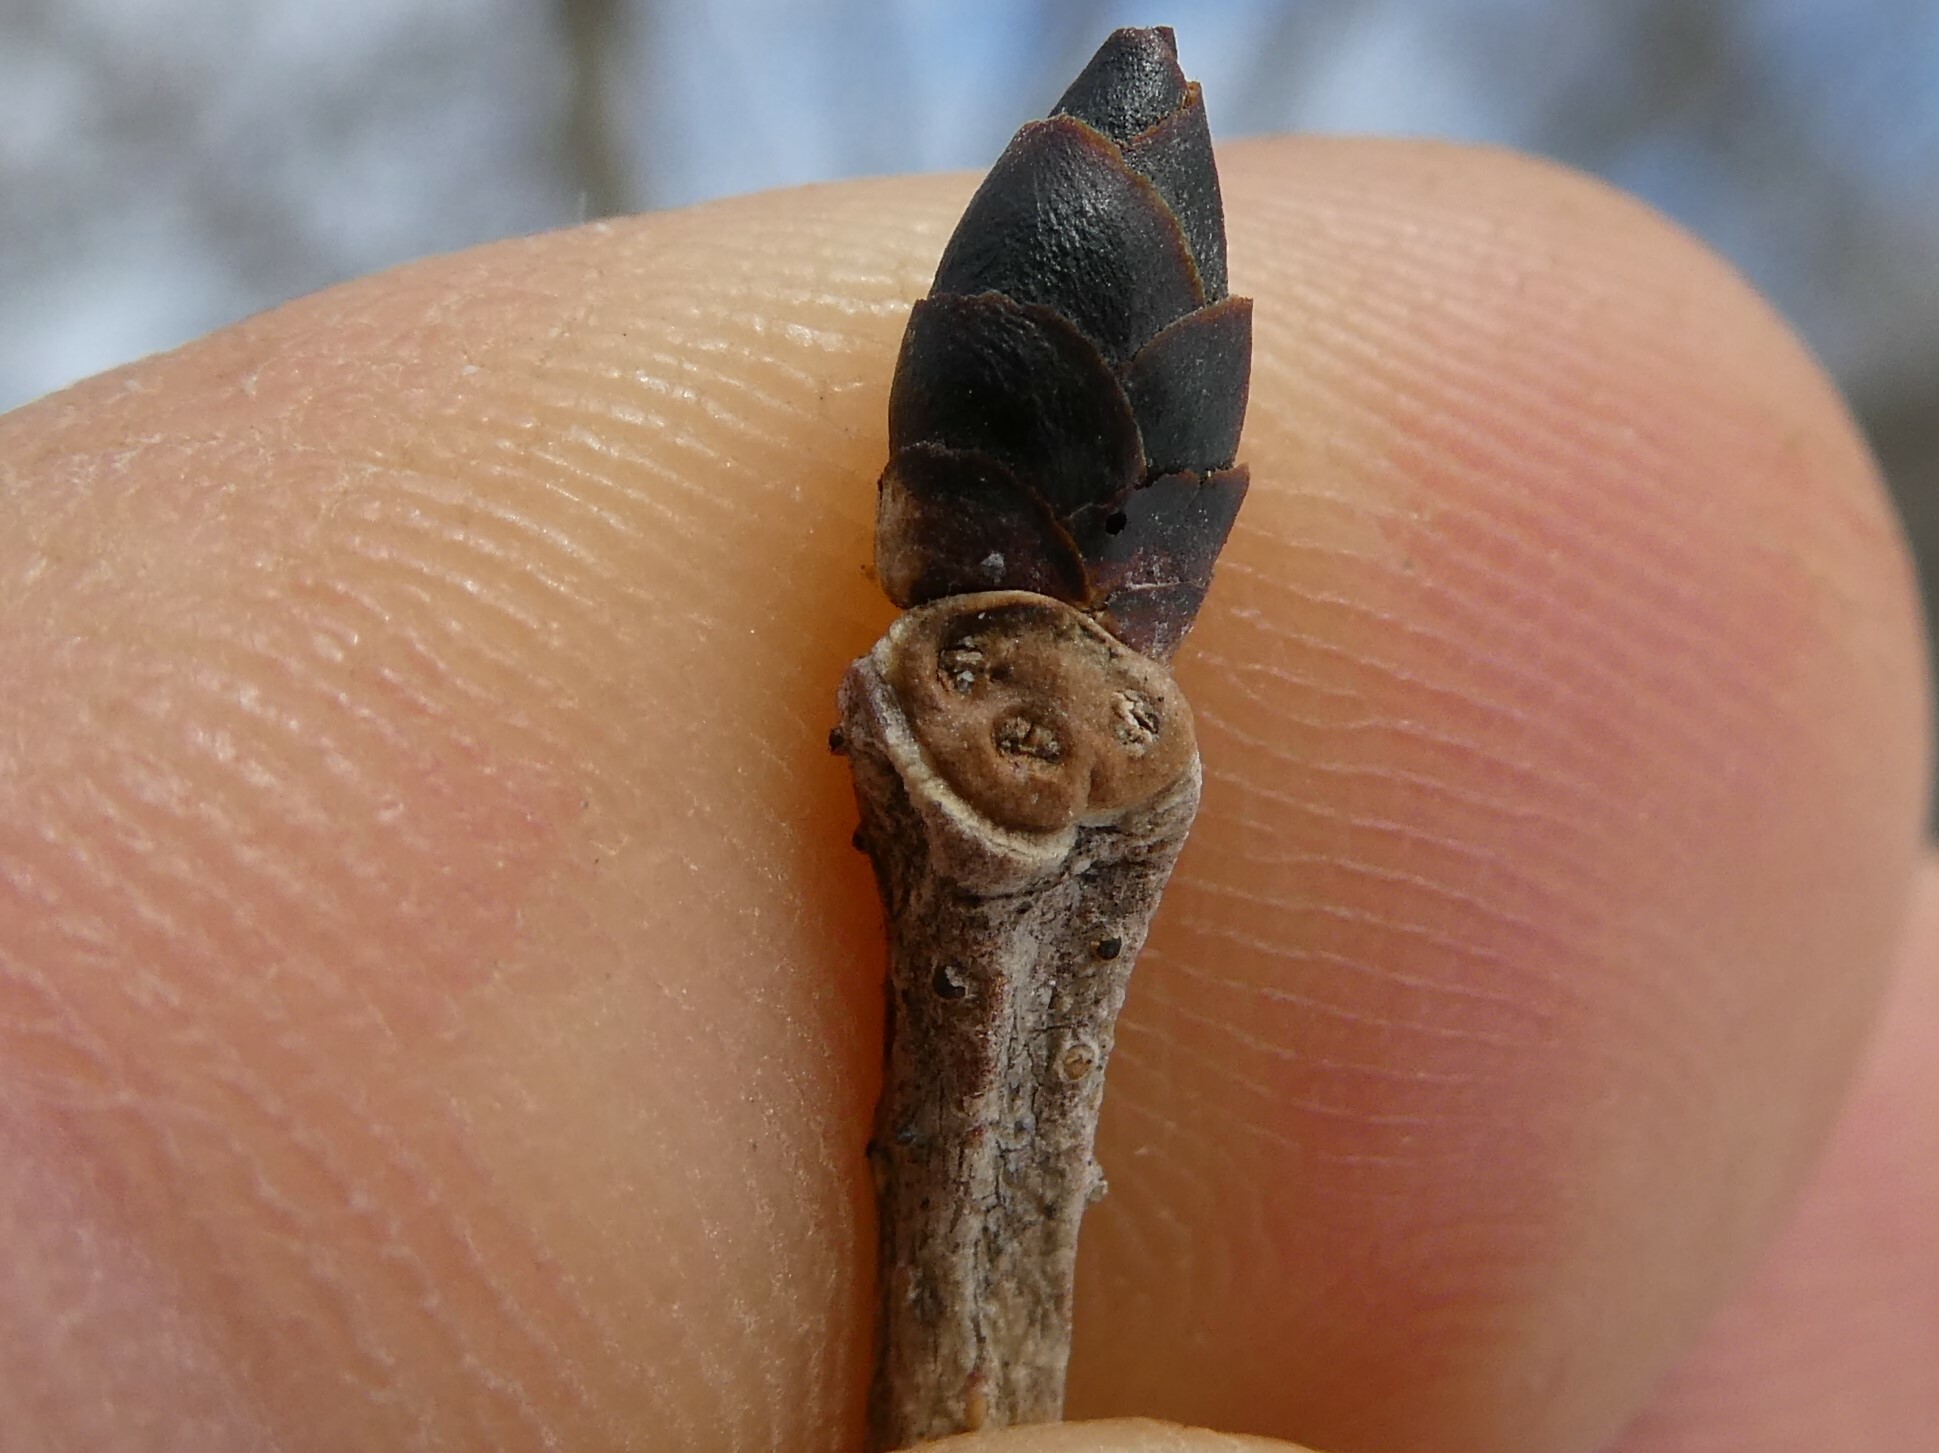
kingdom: Plantae
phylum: Tracheophyta
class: Magnoliopsida
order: Rosales
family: Ulmaceae
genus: Ulmus
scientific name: Ulmus rubra
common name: Slippery elm
